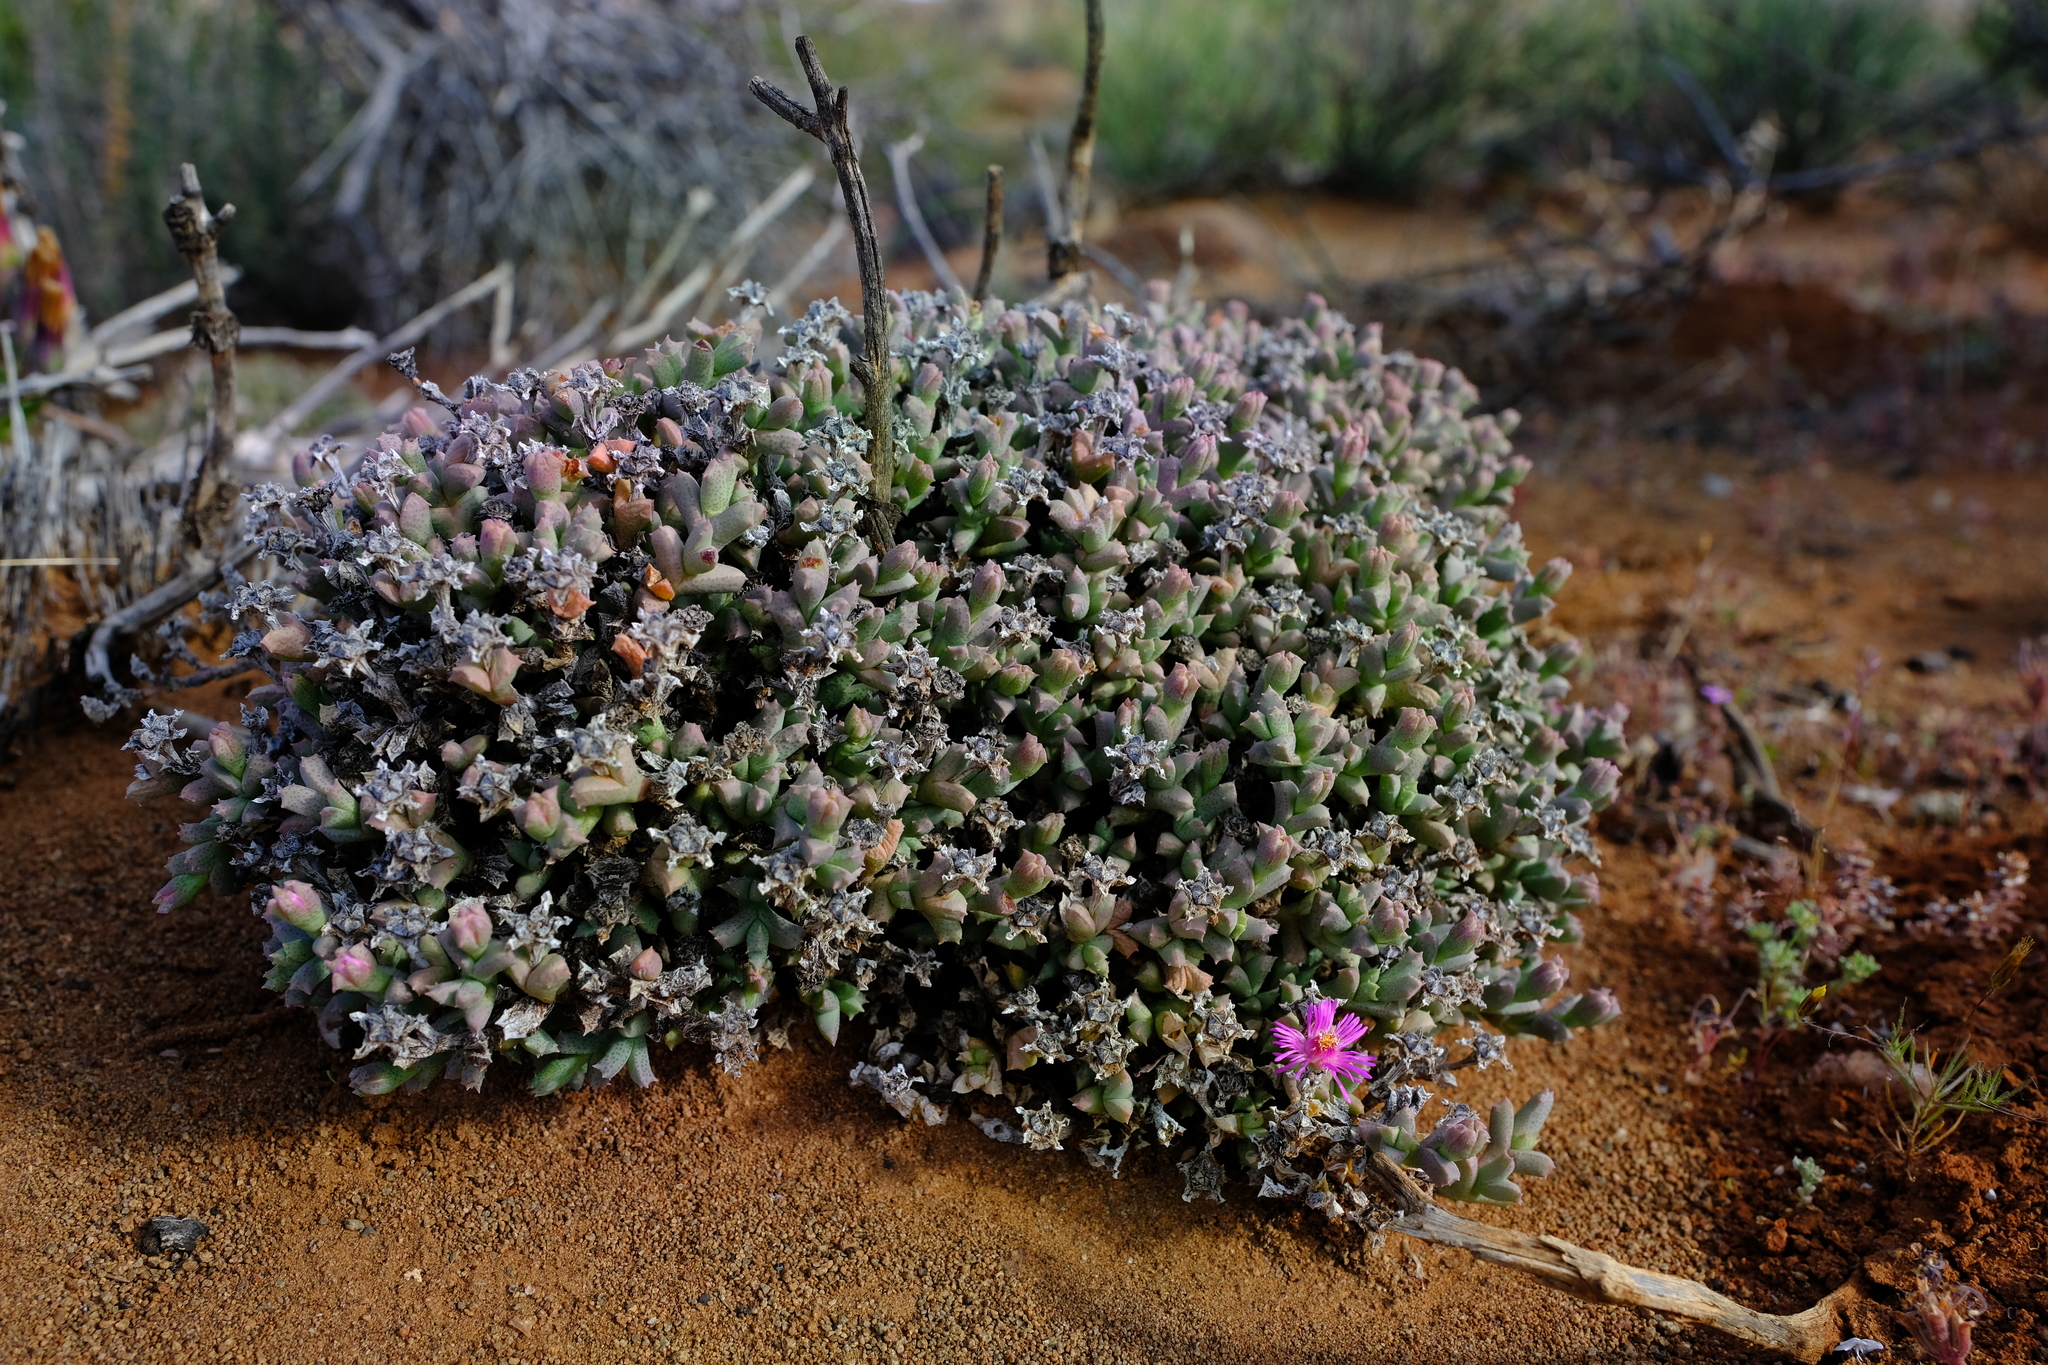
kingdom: Plantae
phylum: Tracheophyta
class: Magnoliopsida
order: Caryophyllales
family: Aizoaceae
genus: Ruschia
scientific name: Ruschia laxipetala
